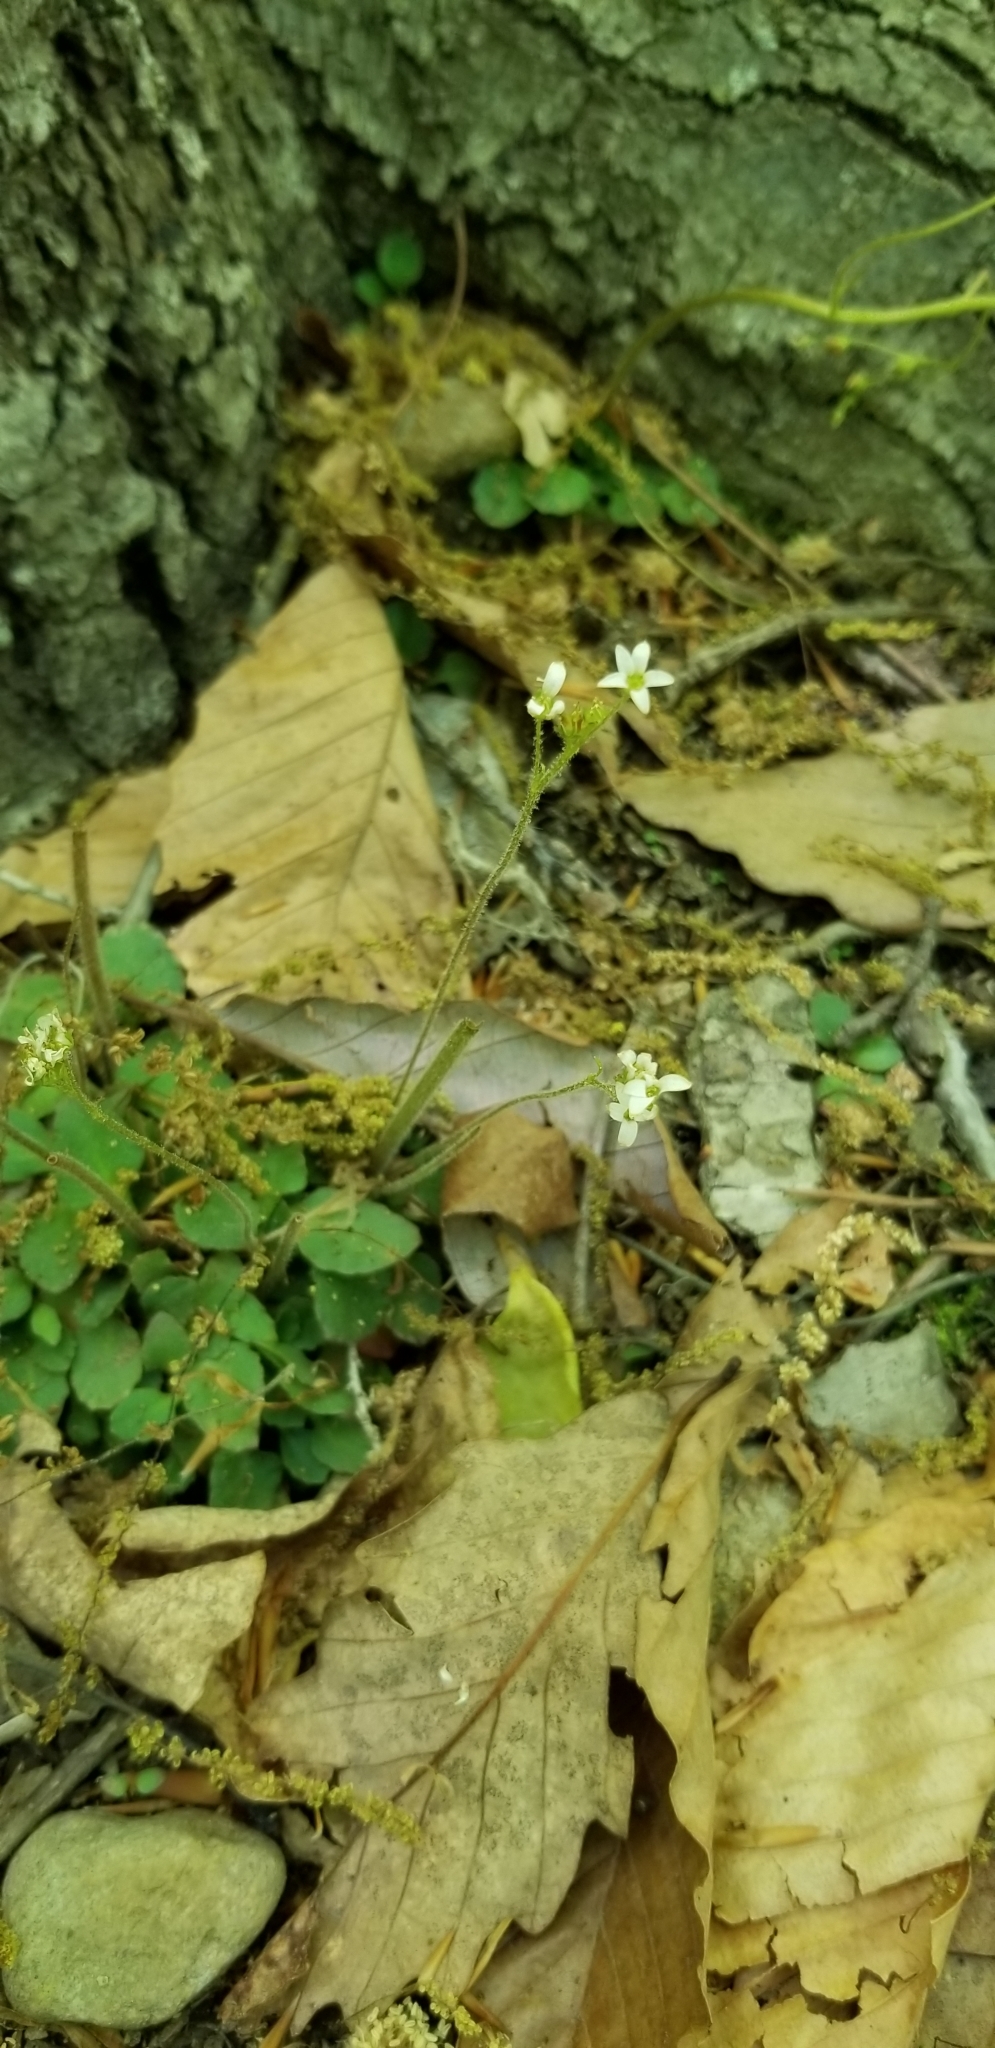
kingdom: Plantae
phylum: Tracheophyta
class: Magnoliopsida
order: Saxifragales
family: Saxifragaceae
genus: Micranthes
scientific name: Micranthes virginiensis
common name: Early saxifrage
